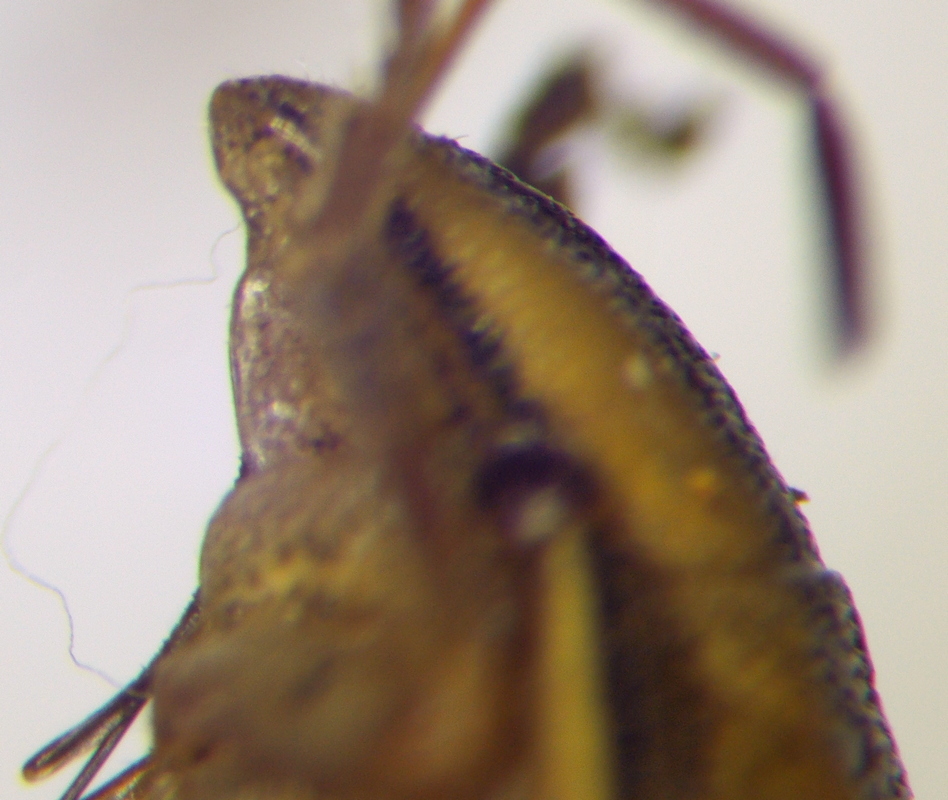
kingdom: Animalia
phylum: Arthropoda
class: Insecta
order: Hemiptera
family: Pentatomidae
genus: Aelia
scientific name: Aelia acuminata
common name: Bishop's mitre
